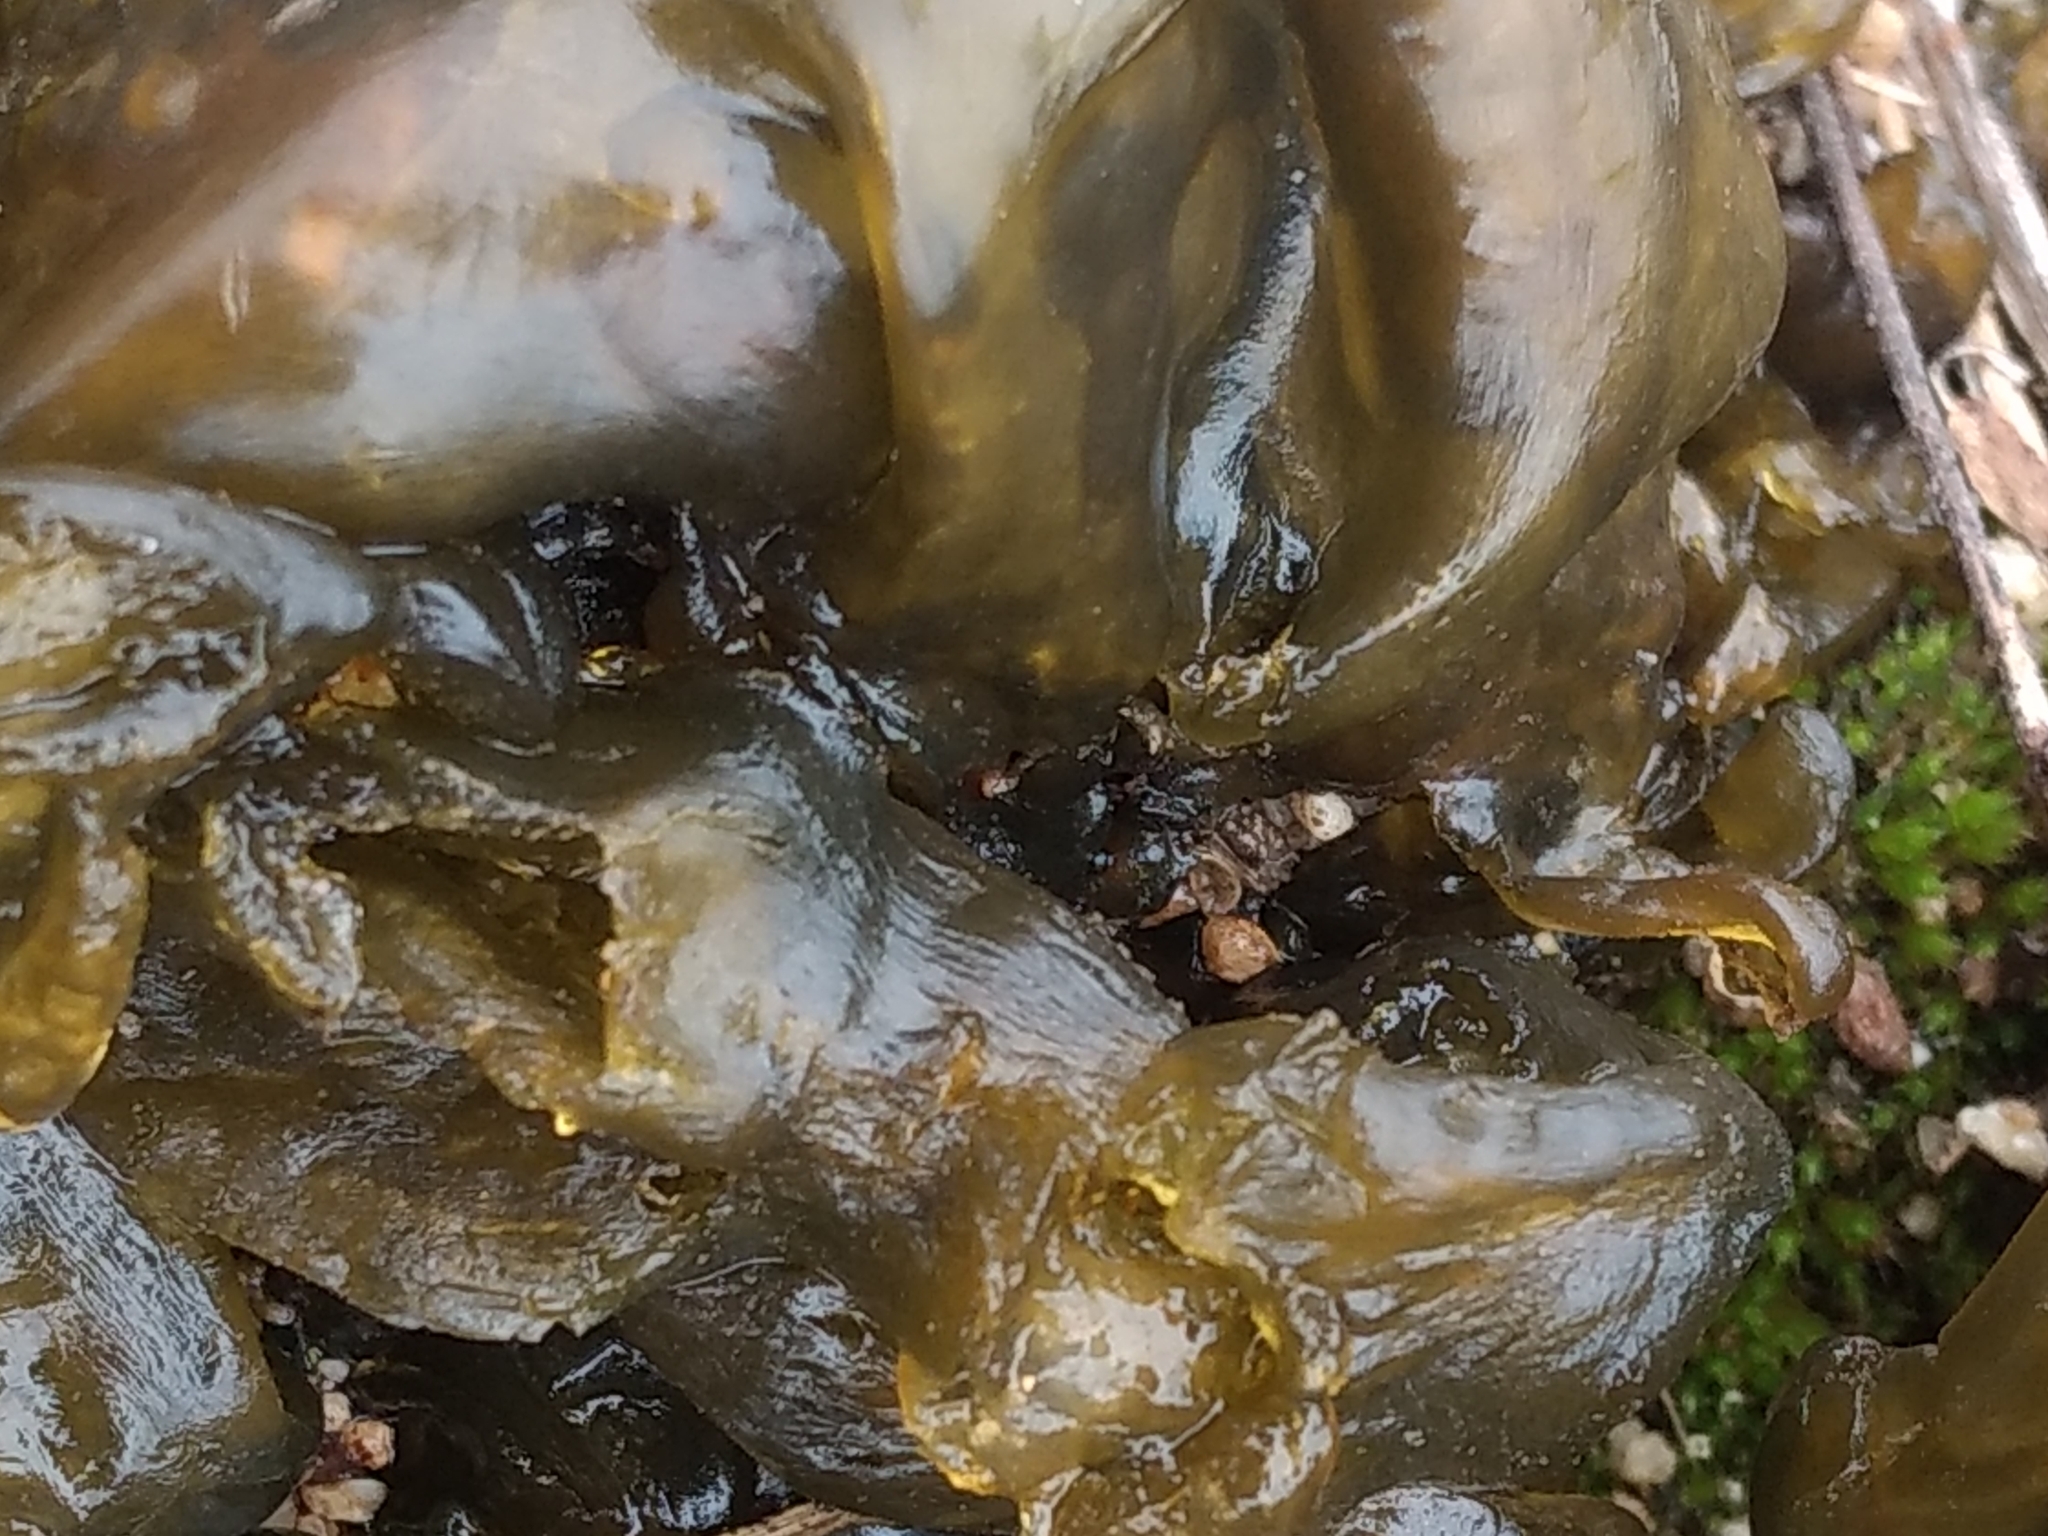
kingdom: Bacteria
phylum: Cyanobacteria
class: Cyanobacteriia
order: Cyanobacteriales
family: Nostocaceae
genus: Nostoc
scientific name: Nostoc commune
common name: Star jelly
